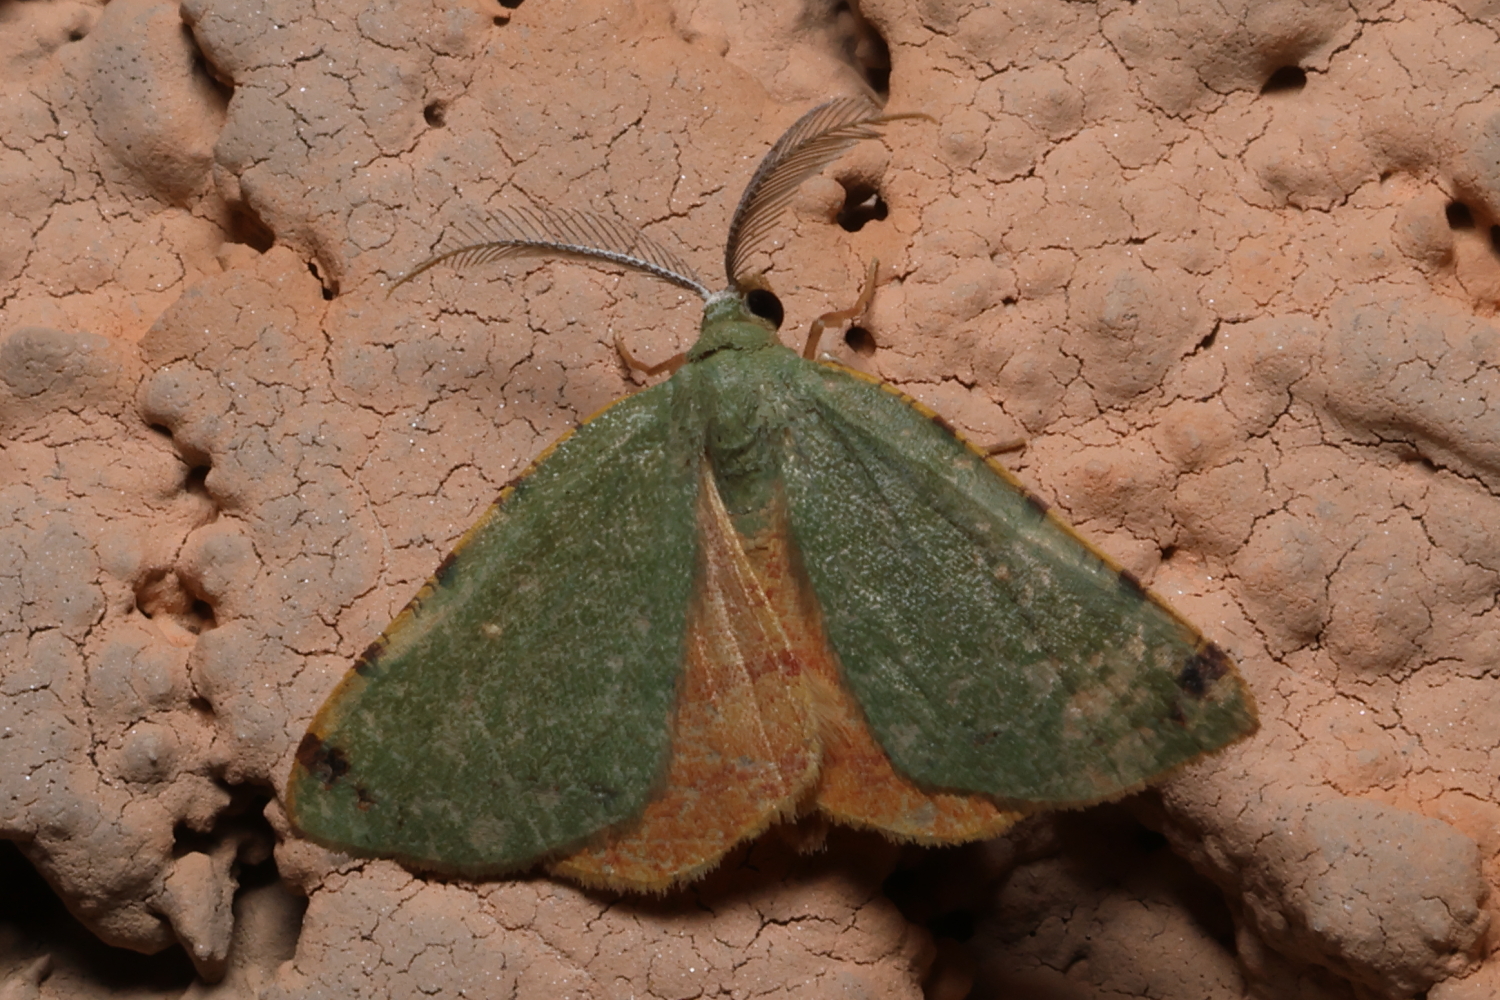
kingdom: Animalia
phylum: Arthropoda
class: Insecta
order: Lepidoptera
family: Geometridae
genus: Chloraspilates
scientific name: Chloraspilates bicoloraria
